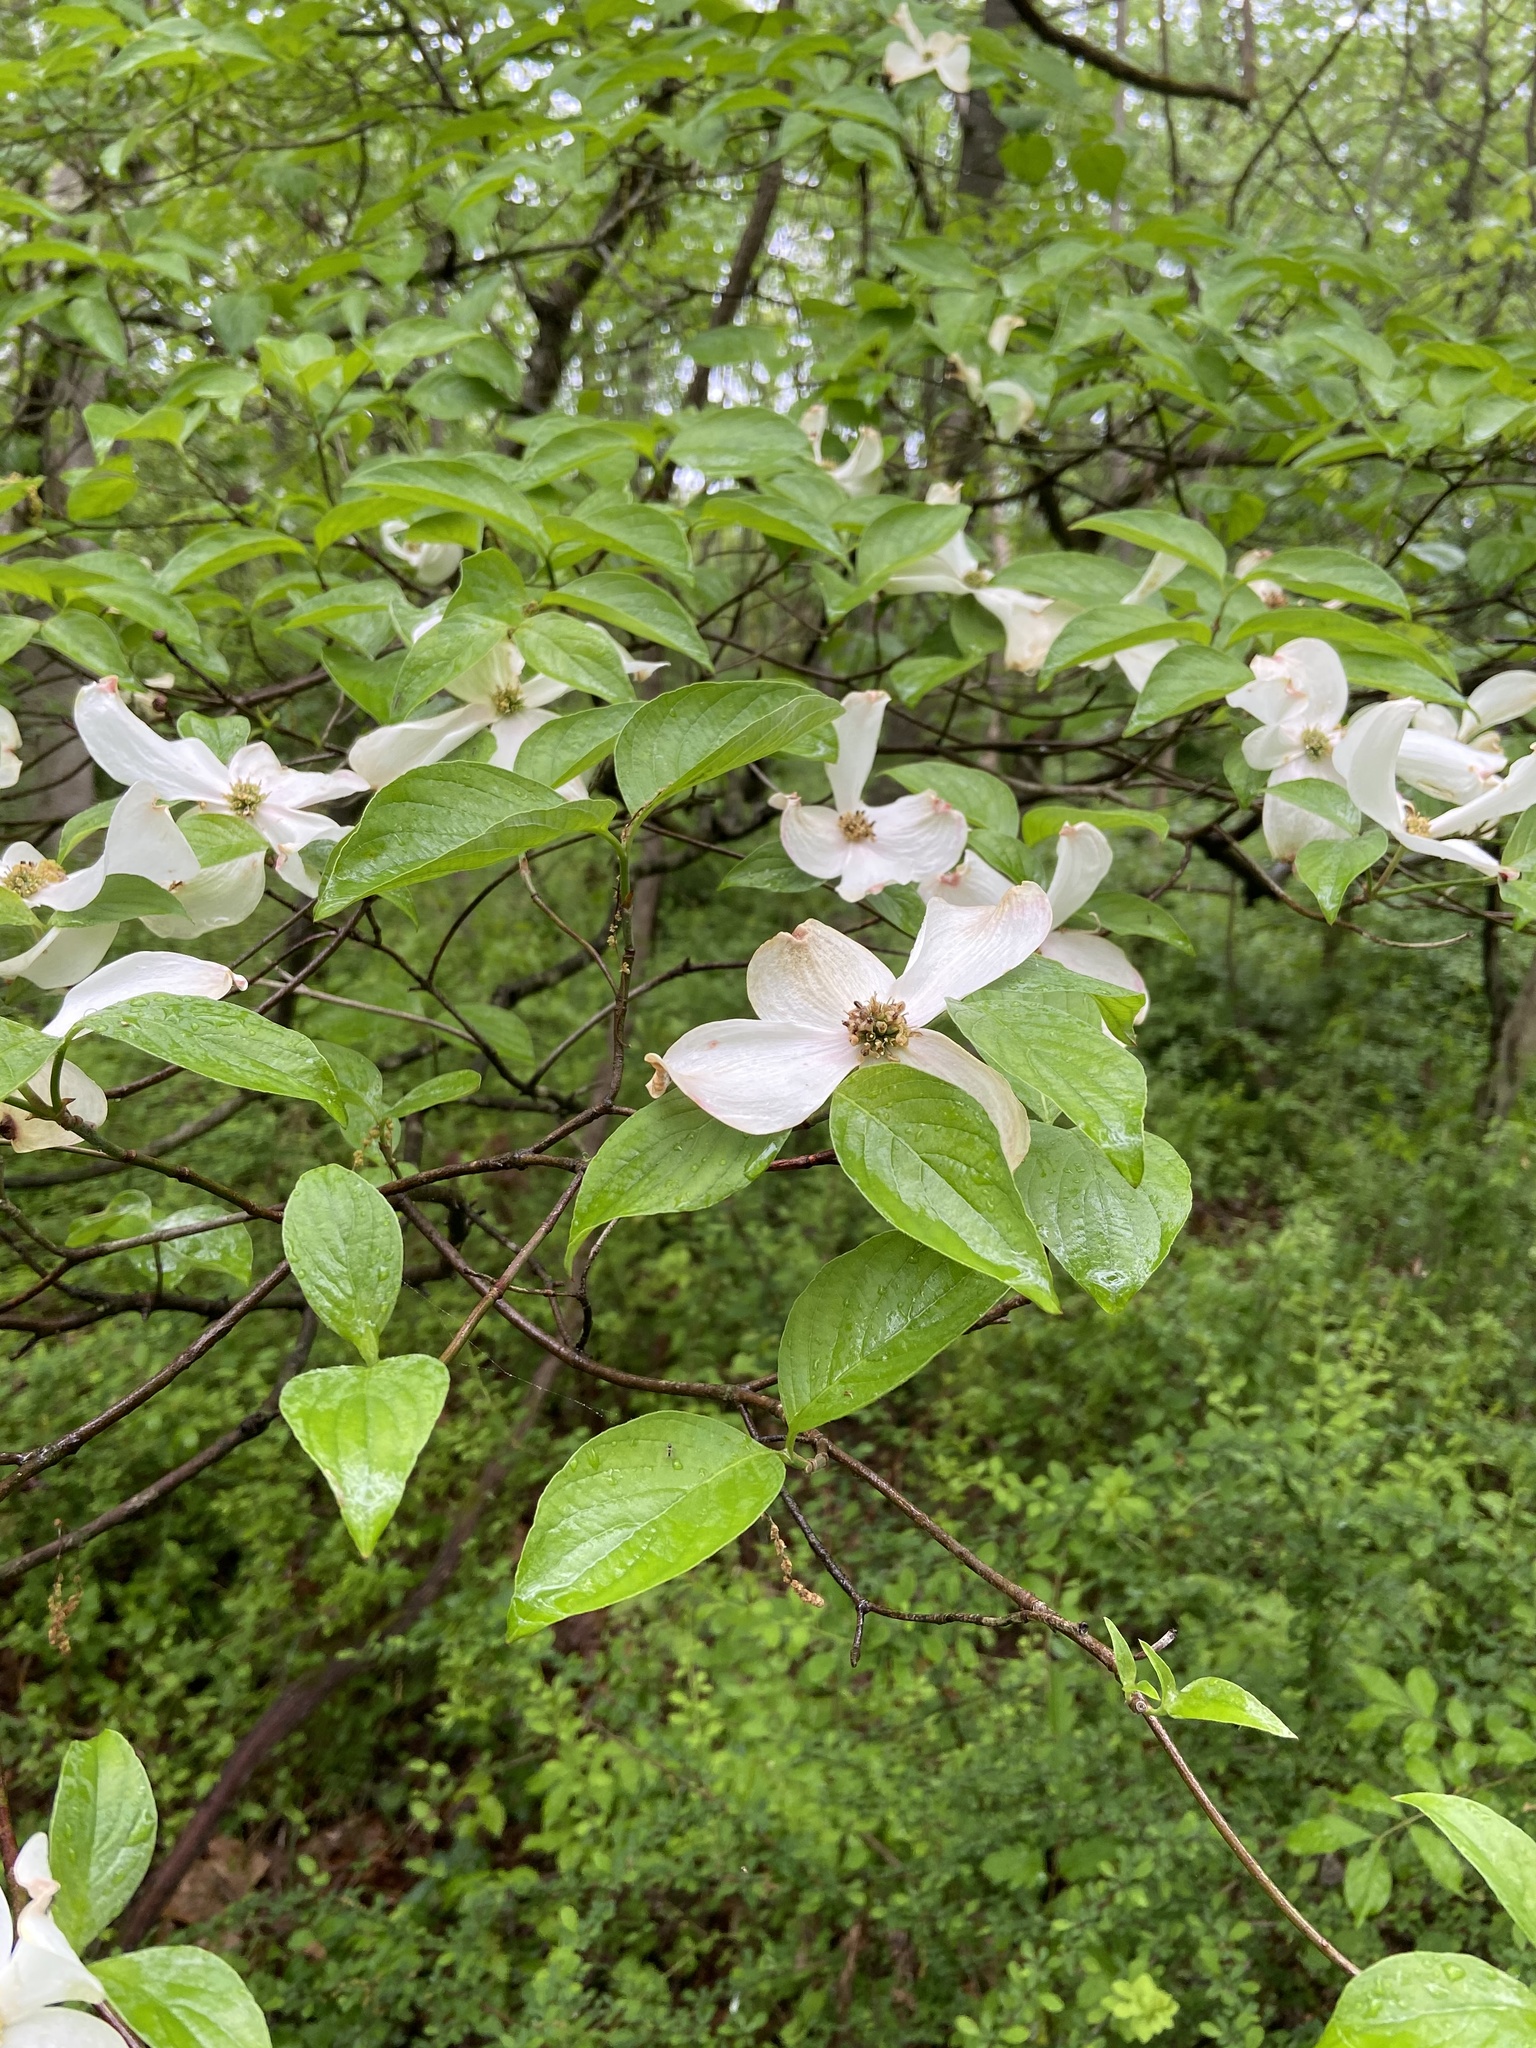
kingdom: Plantae
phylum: Tracheophyta
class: Magnoliopsida
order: Cornales
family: Cornaceae
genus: Cornus
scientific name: Cornus florida
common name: Flowering dogwood
